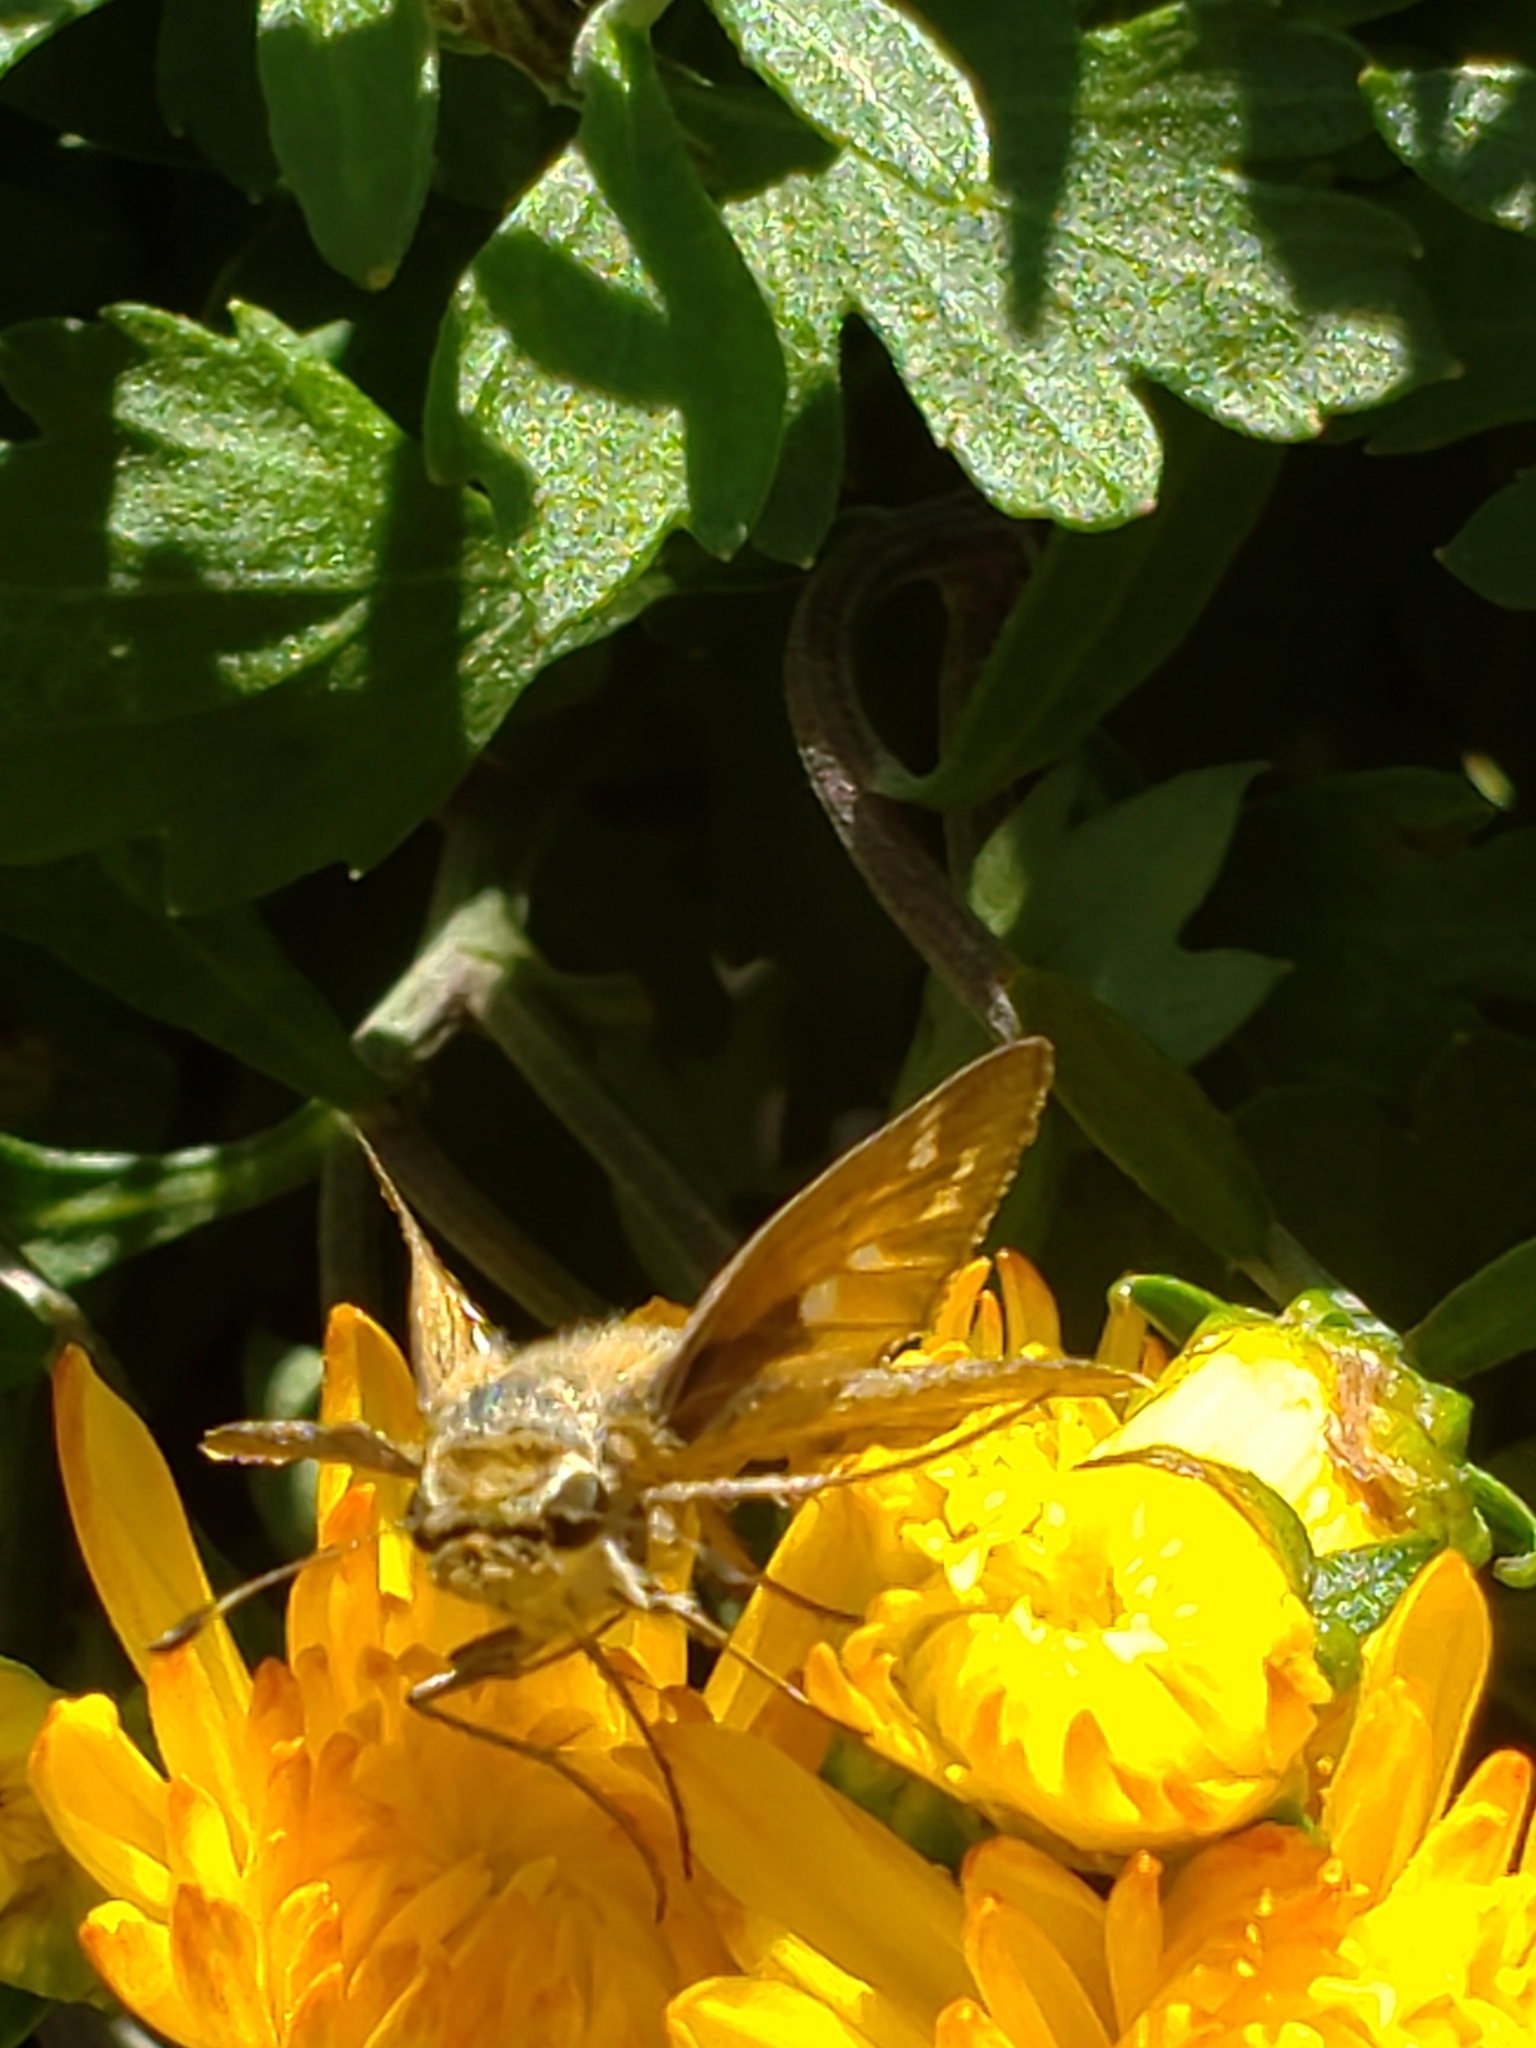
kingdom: Animalia
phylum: Arthropoda
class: Insecta
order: Lepidoptera
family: Hesperiidae
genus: Atalopedes
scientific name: Atalopedes
